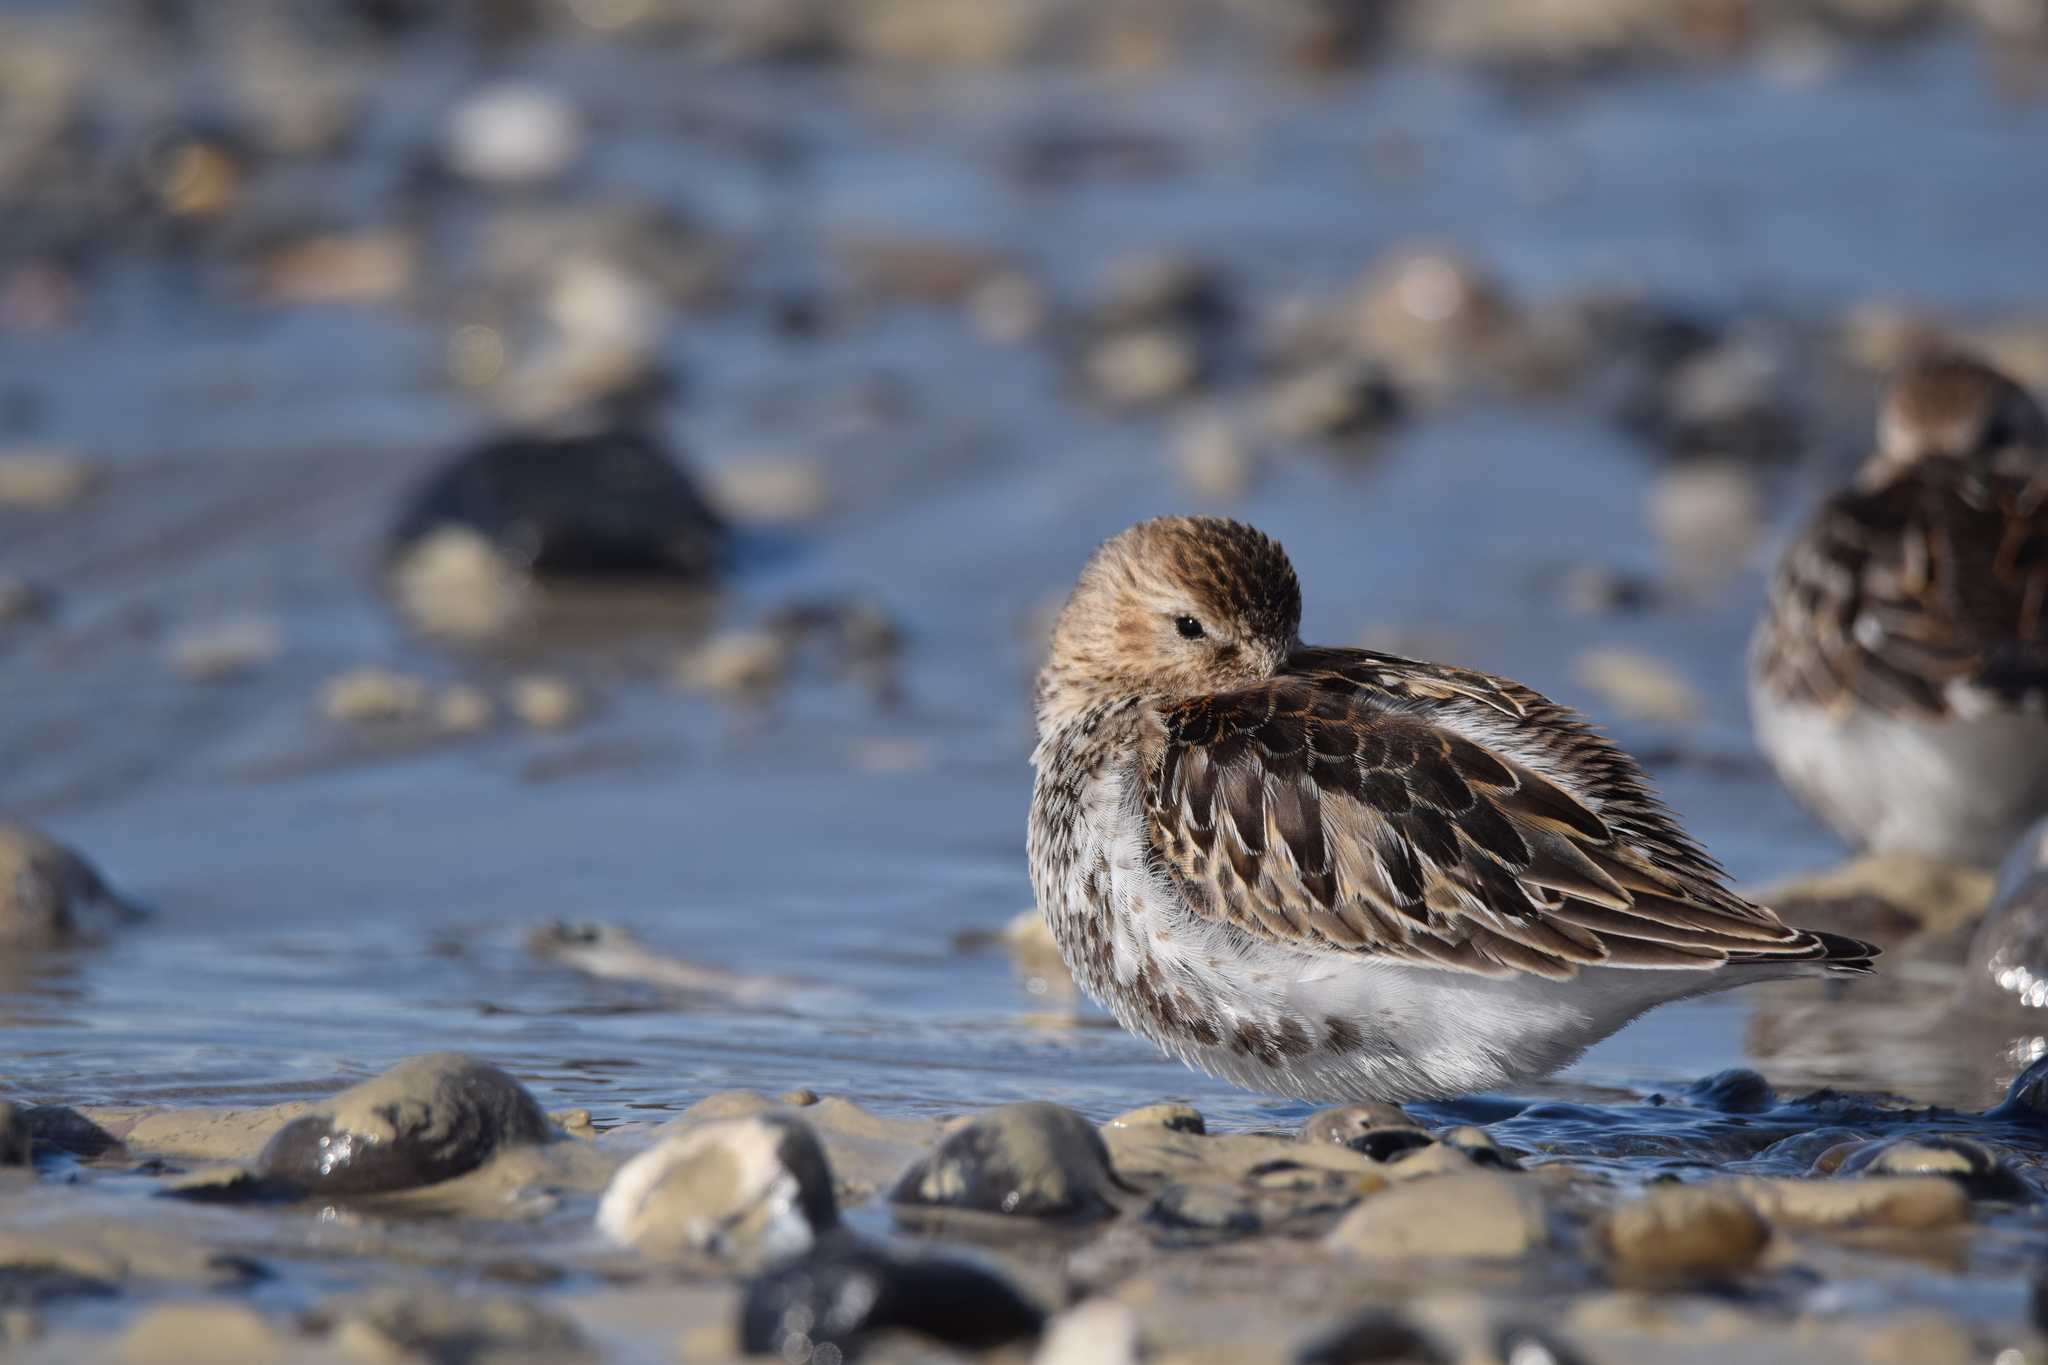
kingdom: Animalia
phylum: Chordata
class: Aves
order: Charadriiformes
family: Scolopacidae
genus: Calidris
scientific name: Calidris alpina
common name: Dunlin
